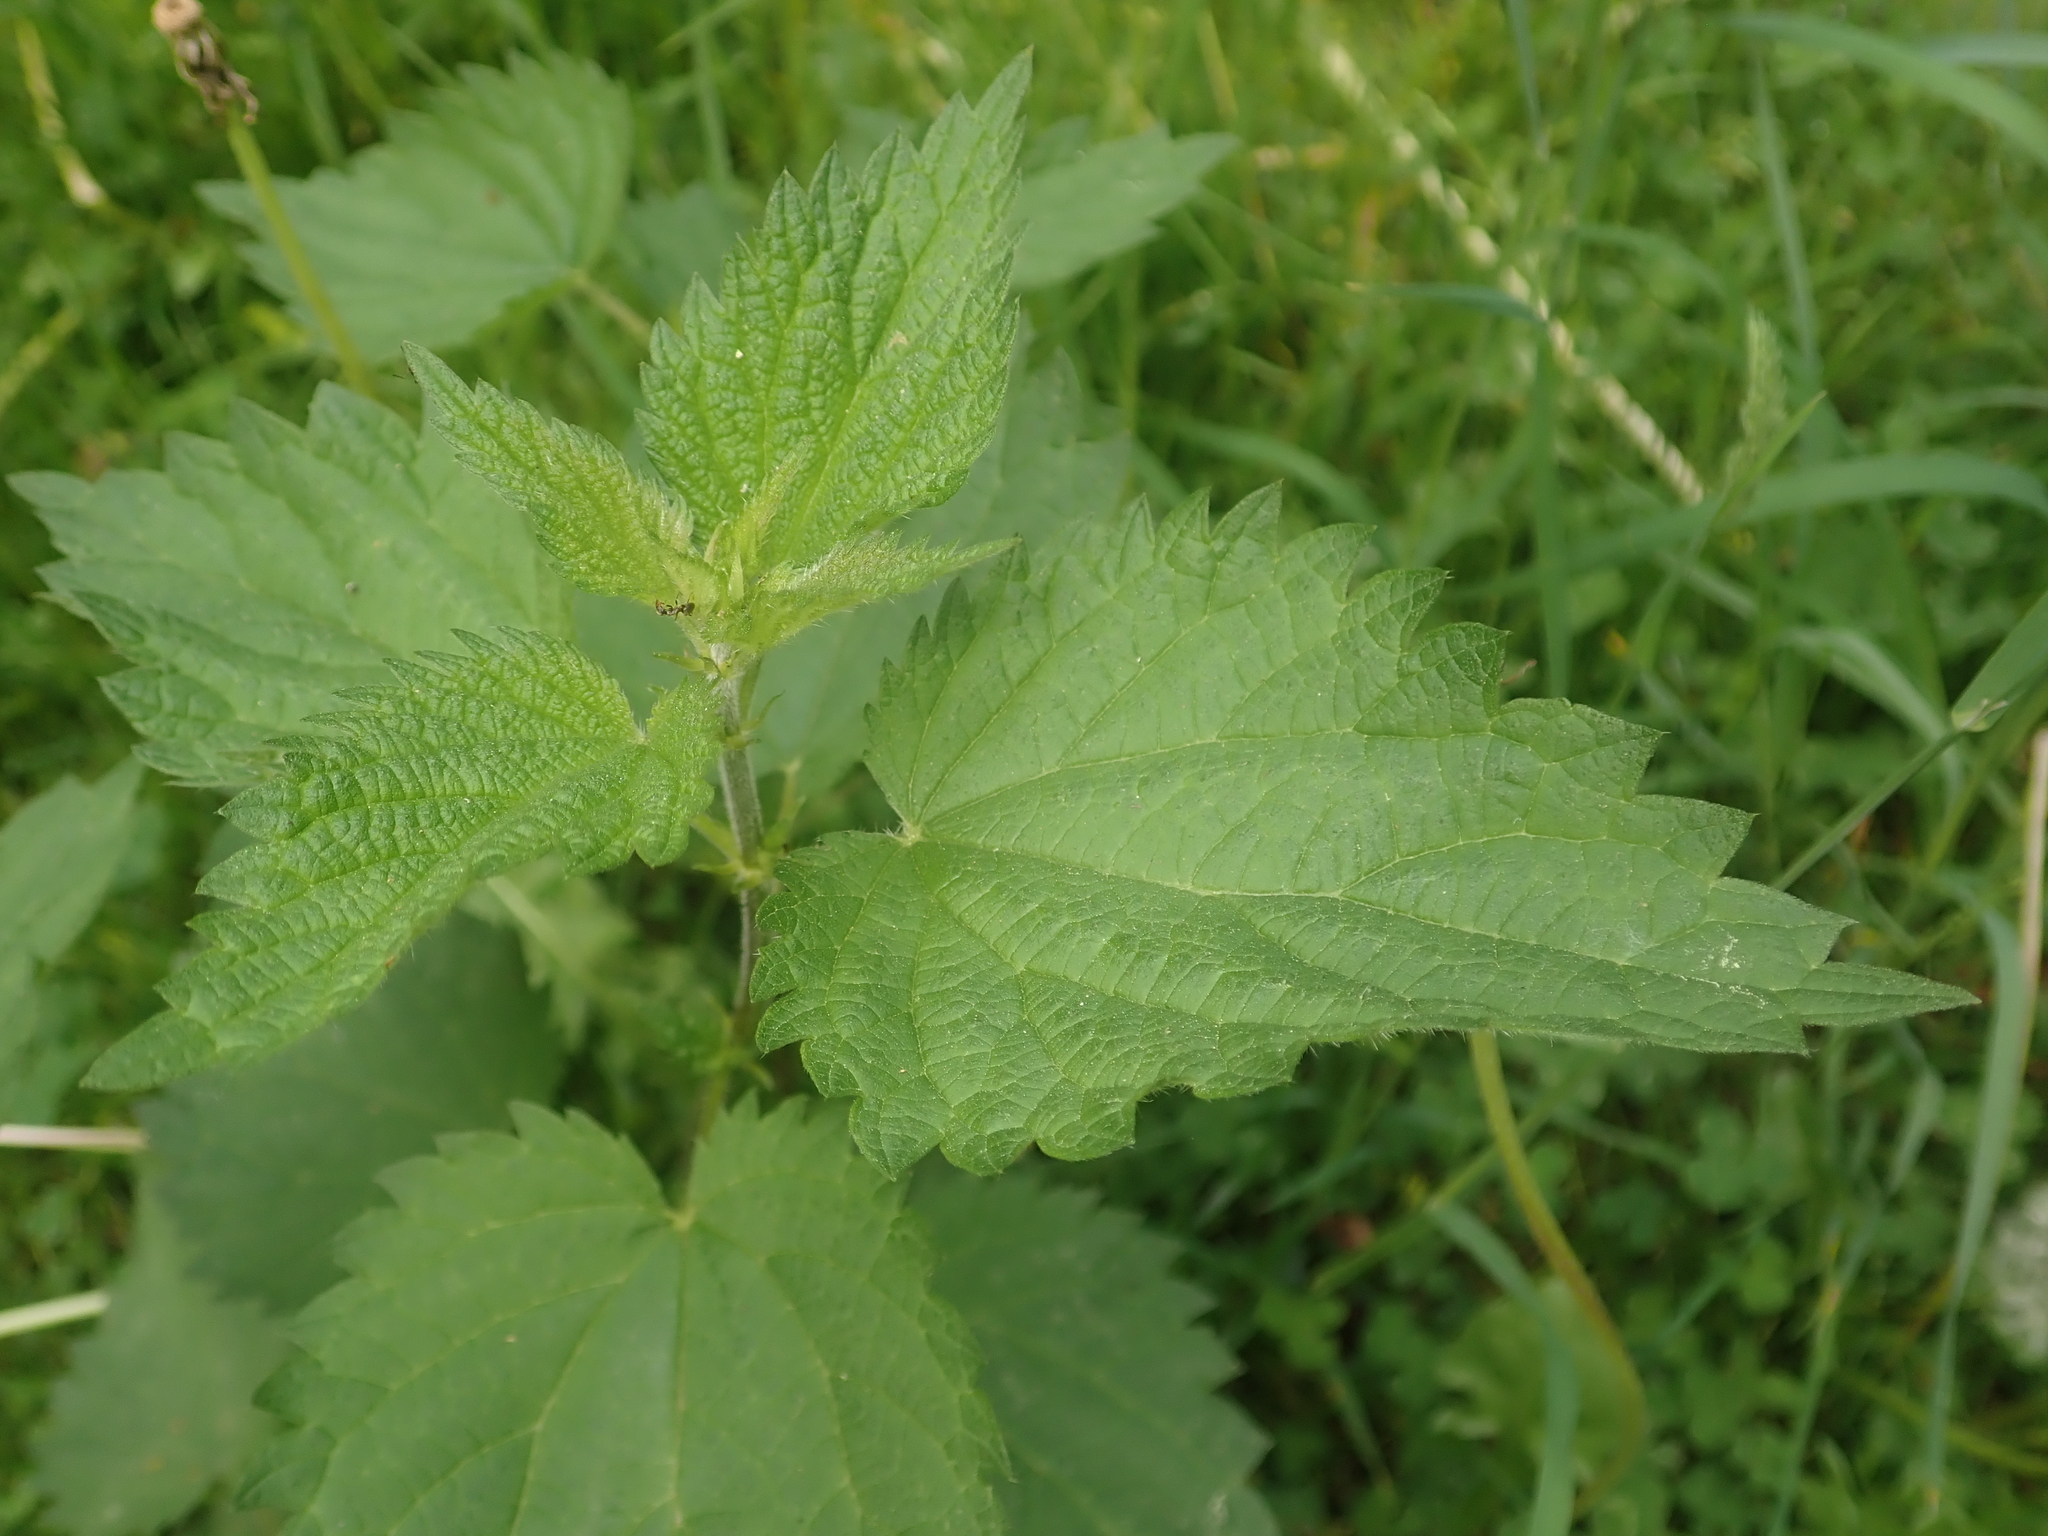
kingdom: Plantae
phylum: Tracheophyta
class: Magnoliopsida
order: Rosales
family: Urticaceae
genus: Urtica
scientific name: Urtica dioica
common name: Common nettle
